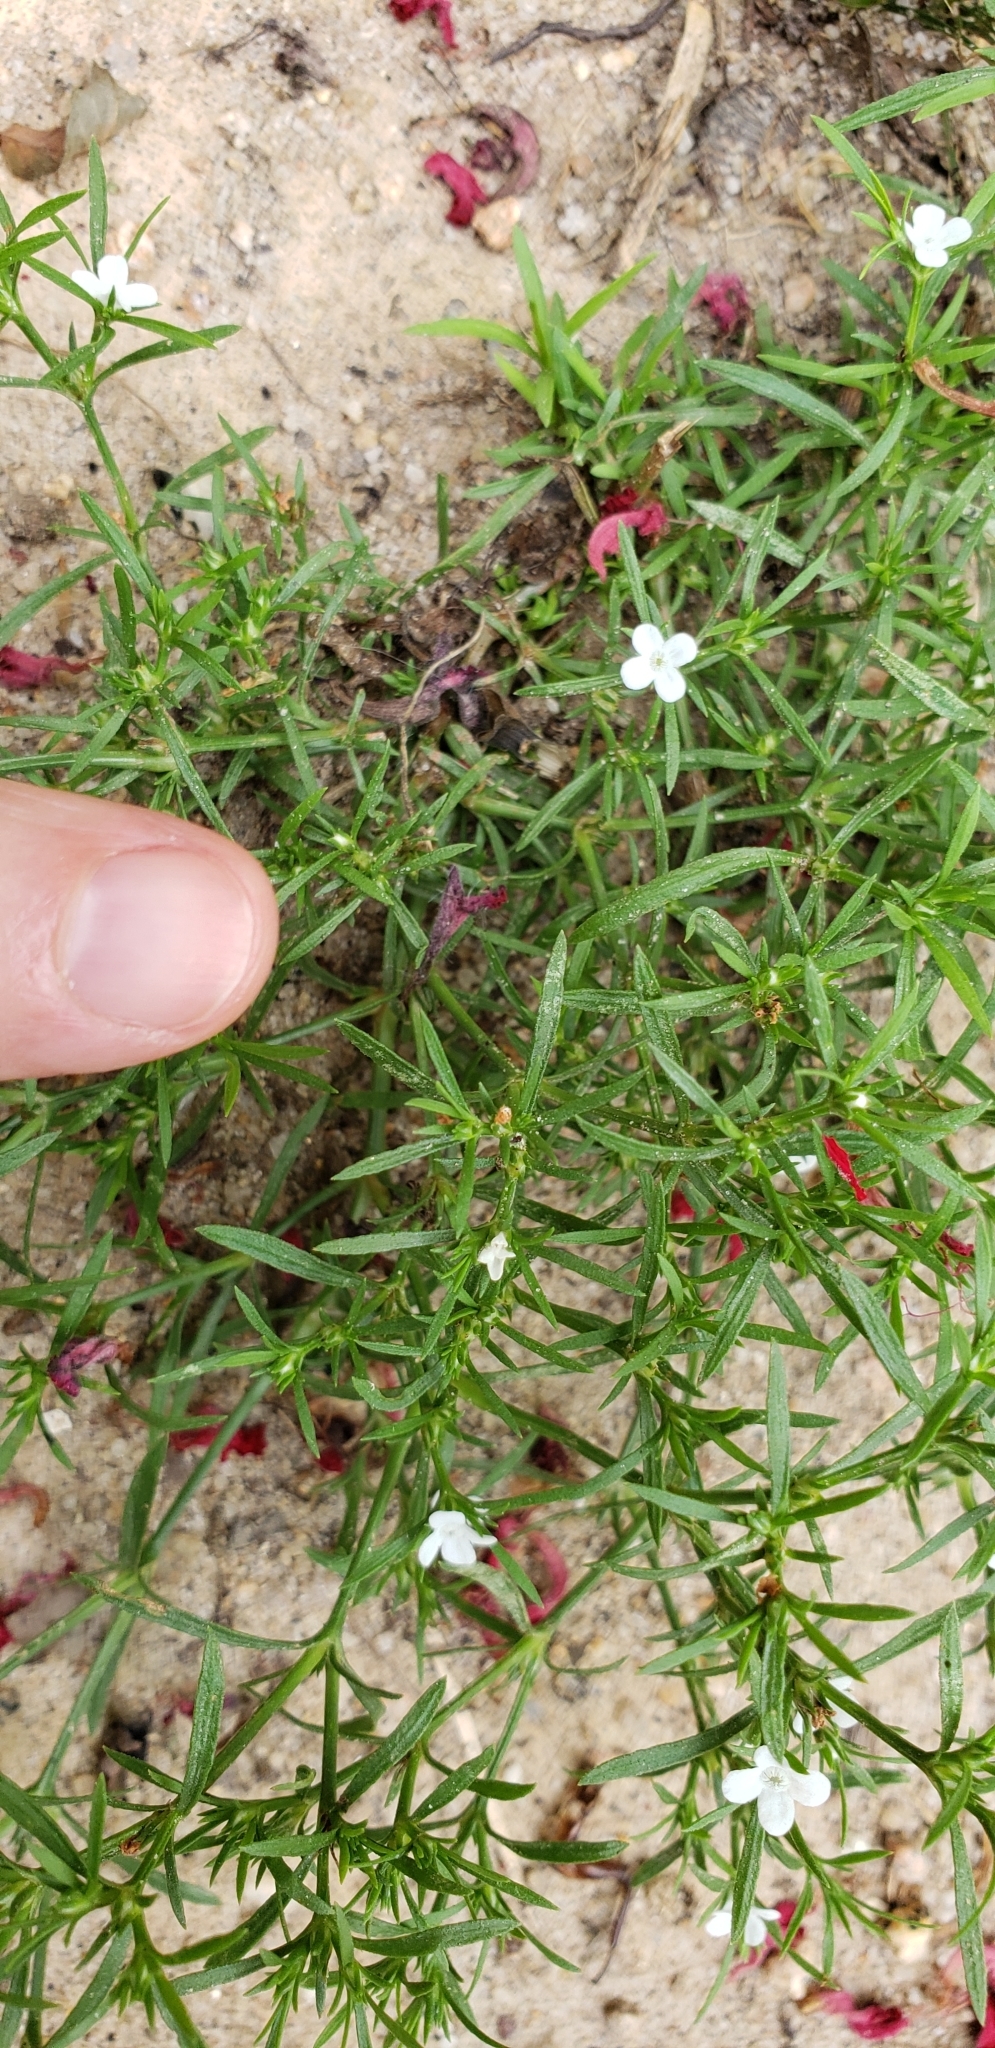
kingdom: Plantae
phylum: Tracheophyta
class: Magnoliopsida
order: Lamiales
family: Tetrachondraceae
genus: Polypremum
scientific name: Polypremum procumbens
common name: Juniper-leaf
